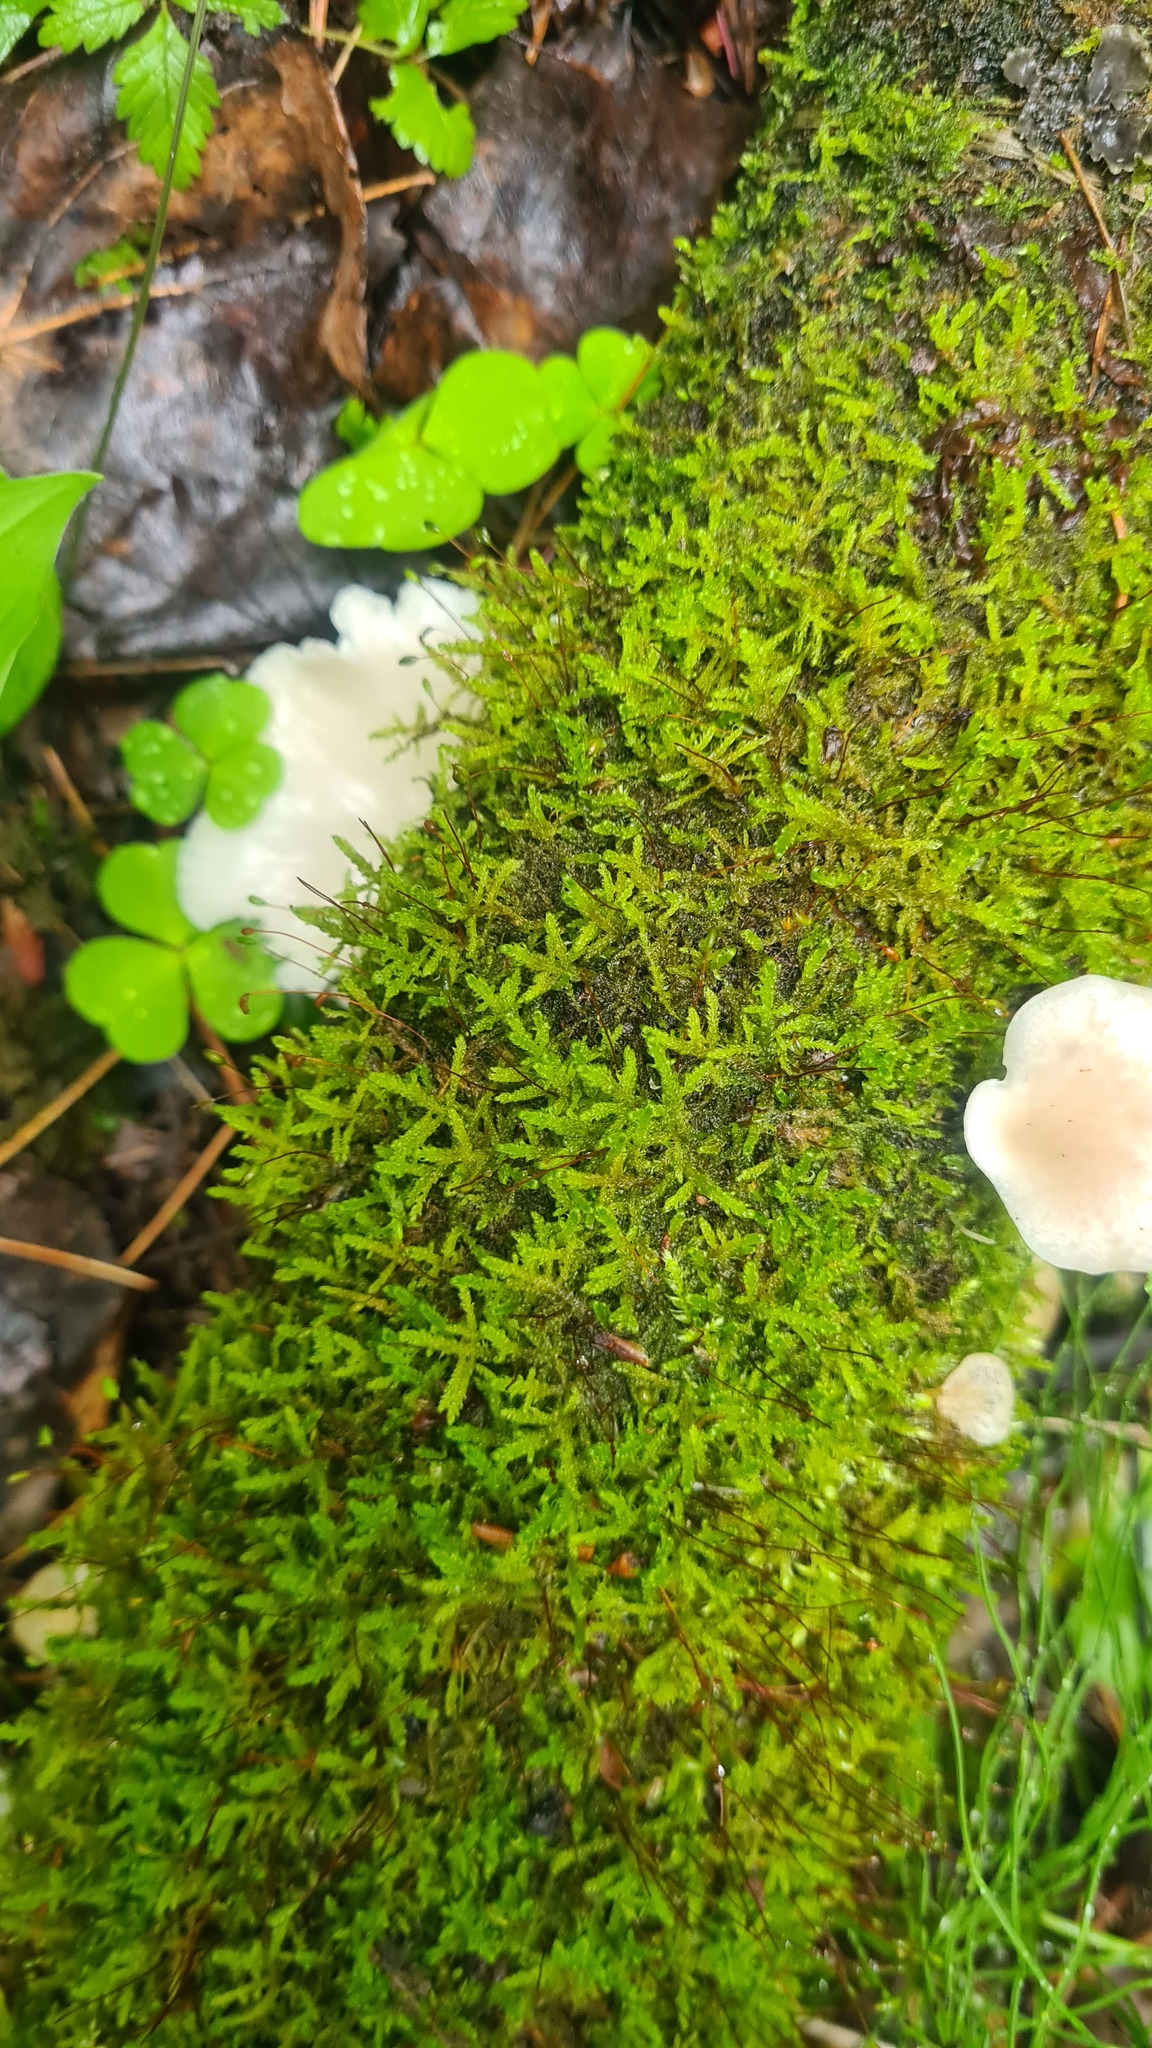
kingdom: Plantae
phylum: Bryophyta
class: Bryopsida
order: Hypnales
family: Scorpidiaceae
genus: Sanionia
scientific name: Sanionia uncinata
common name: Sickle moss
